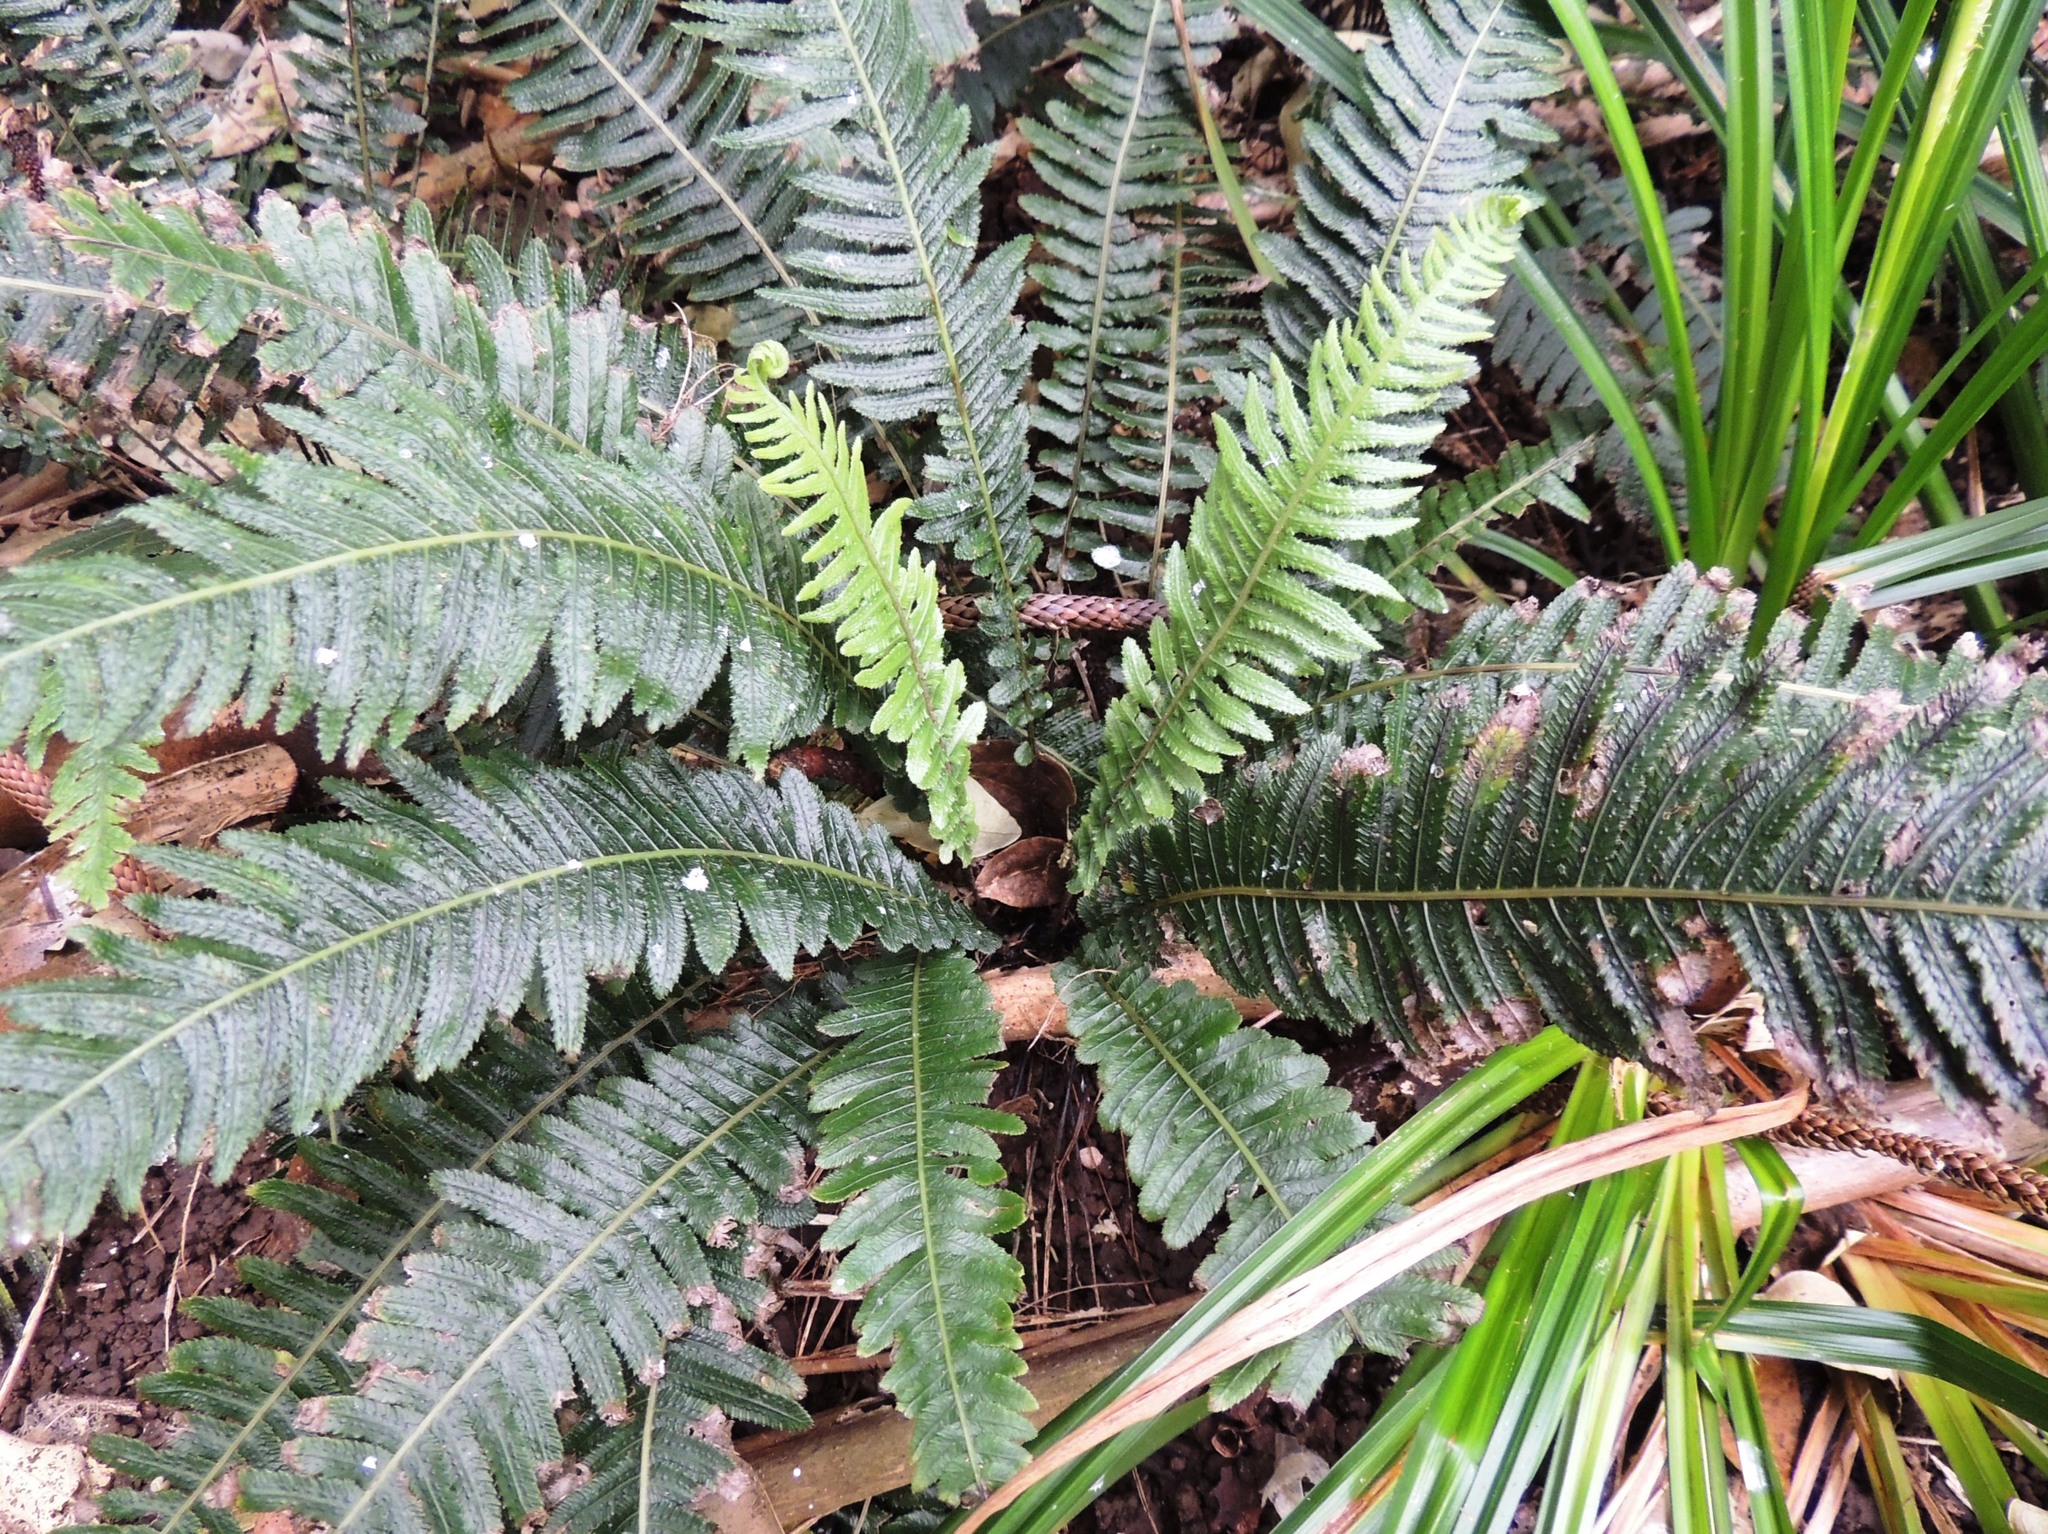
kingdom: Plantae
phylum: Tracheophyta
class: Polypodiopsida
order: Polypodiales
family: Blechnaceae
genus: Doodia
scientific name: Doodia australis
